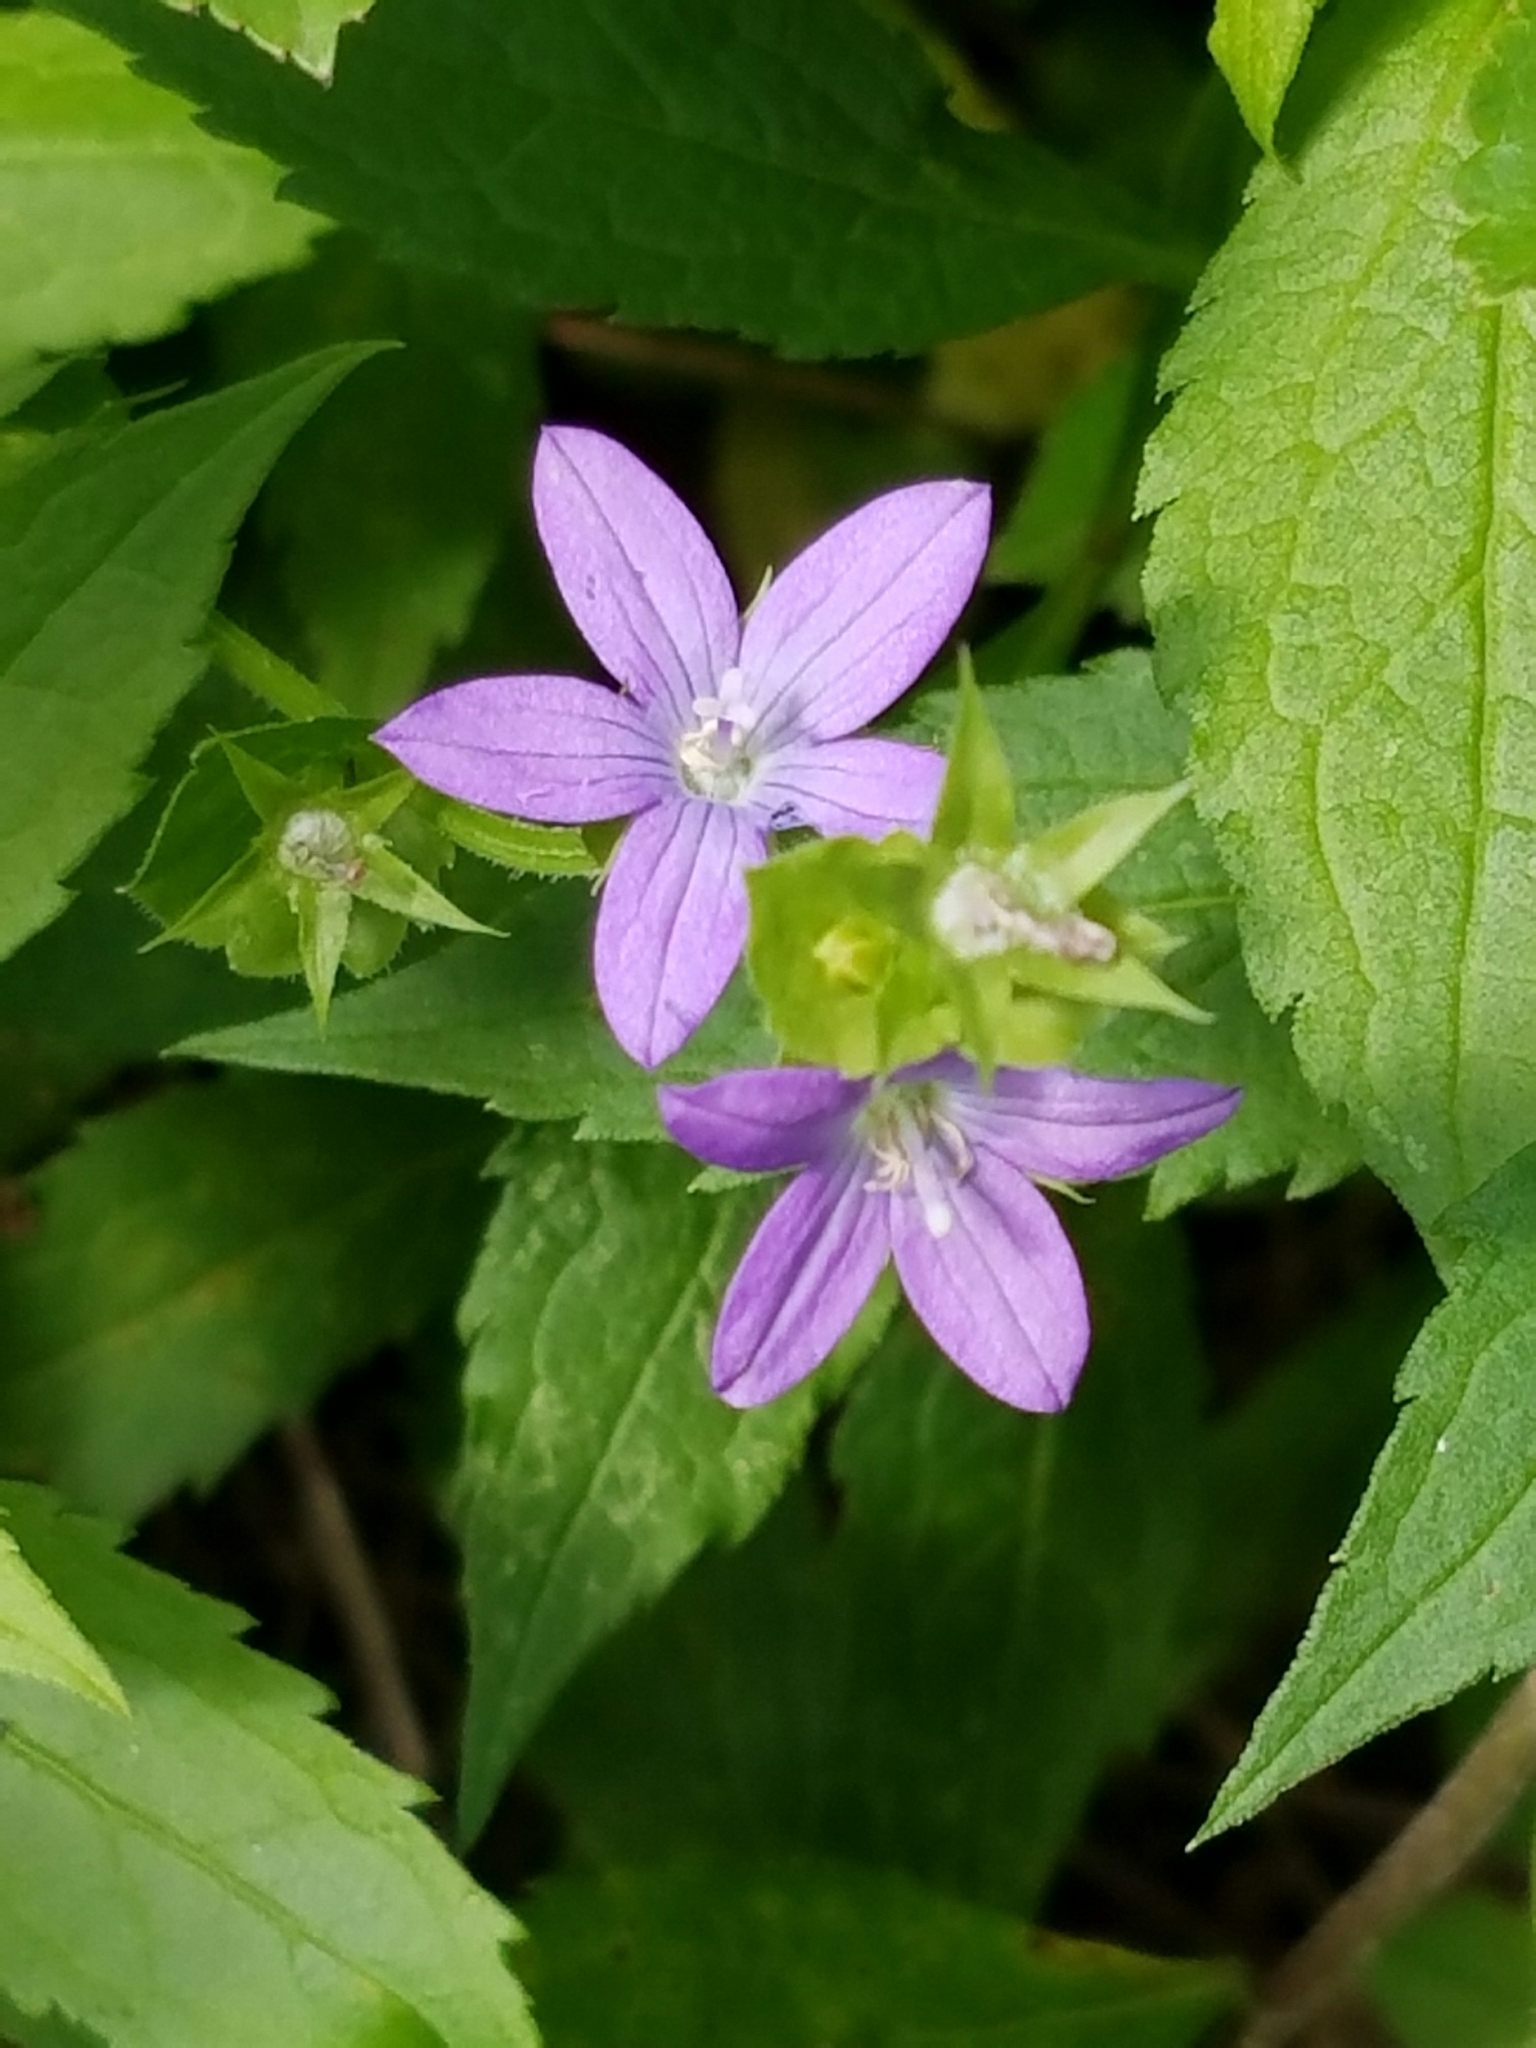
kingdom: Plantae
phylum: Tracheophyta
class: Magnoliopsida
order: Asterales
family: Campanulaceae
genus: Triodanis
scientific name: Triodanis perfoliata
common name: Clasping venus' looking-glass
